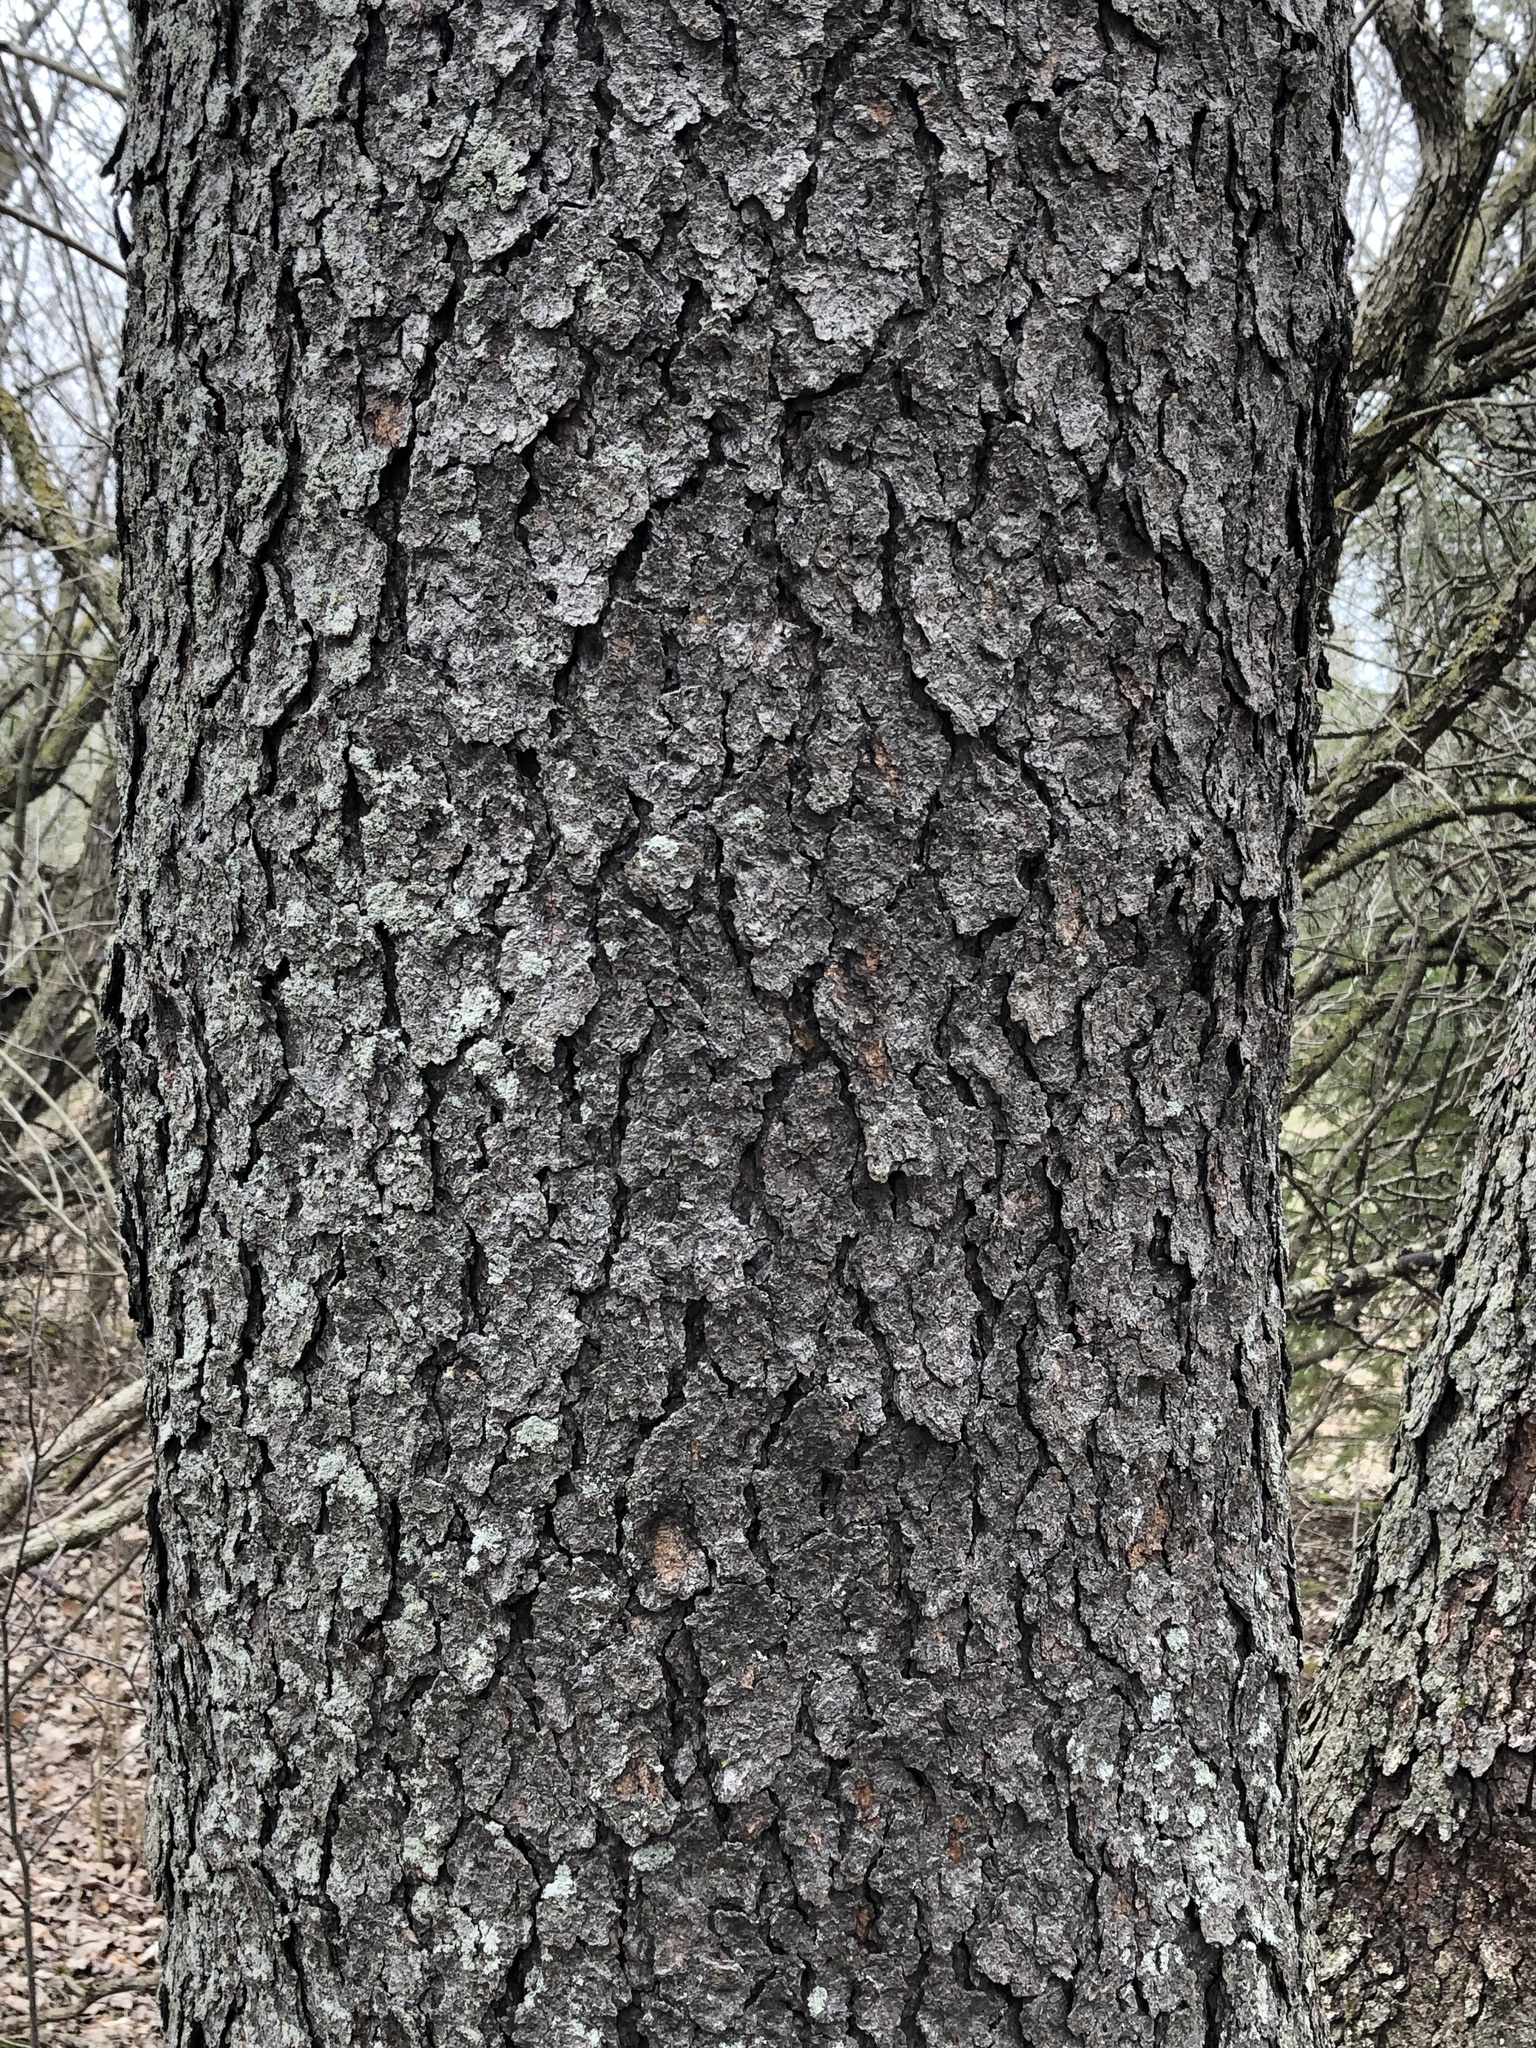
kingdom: Plantae
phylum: Tracheophyta
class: Magnoliopsida
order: Rosales
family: Rosaceae
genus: Prunus
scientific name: Prunus serotina
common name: Black cherry
